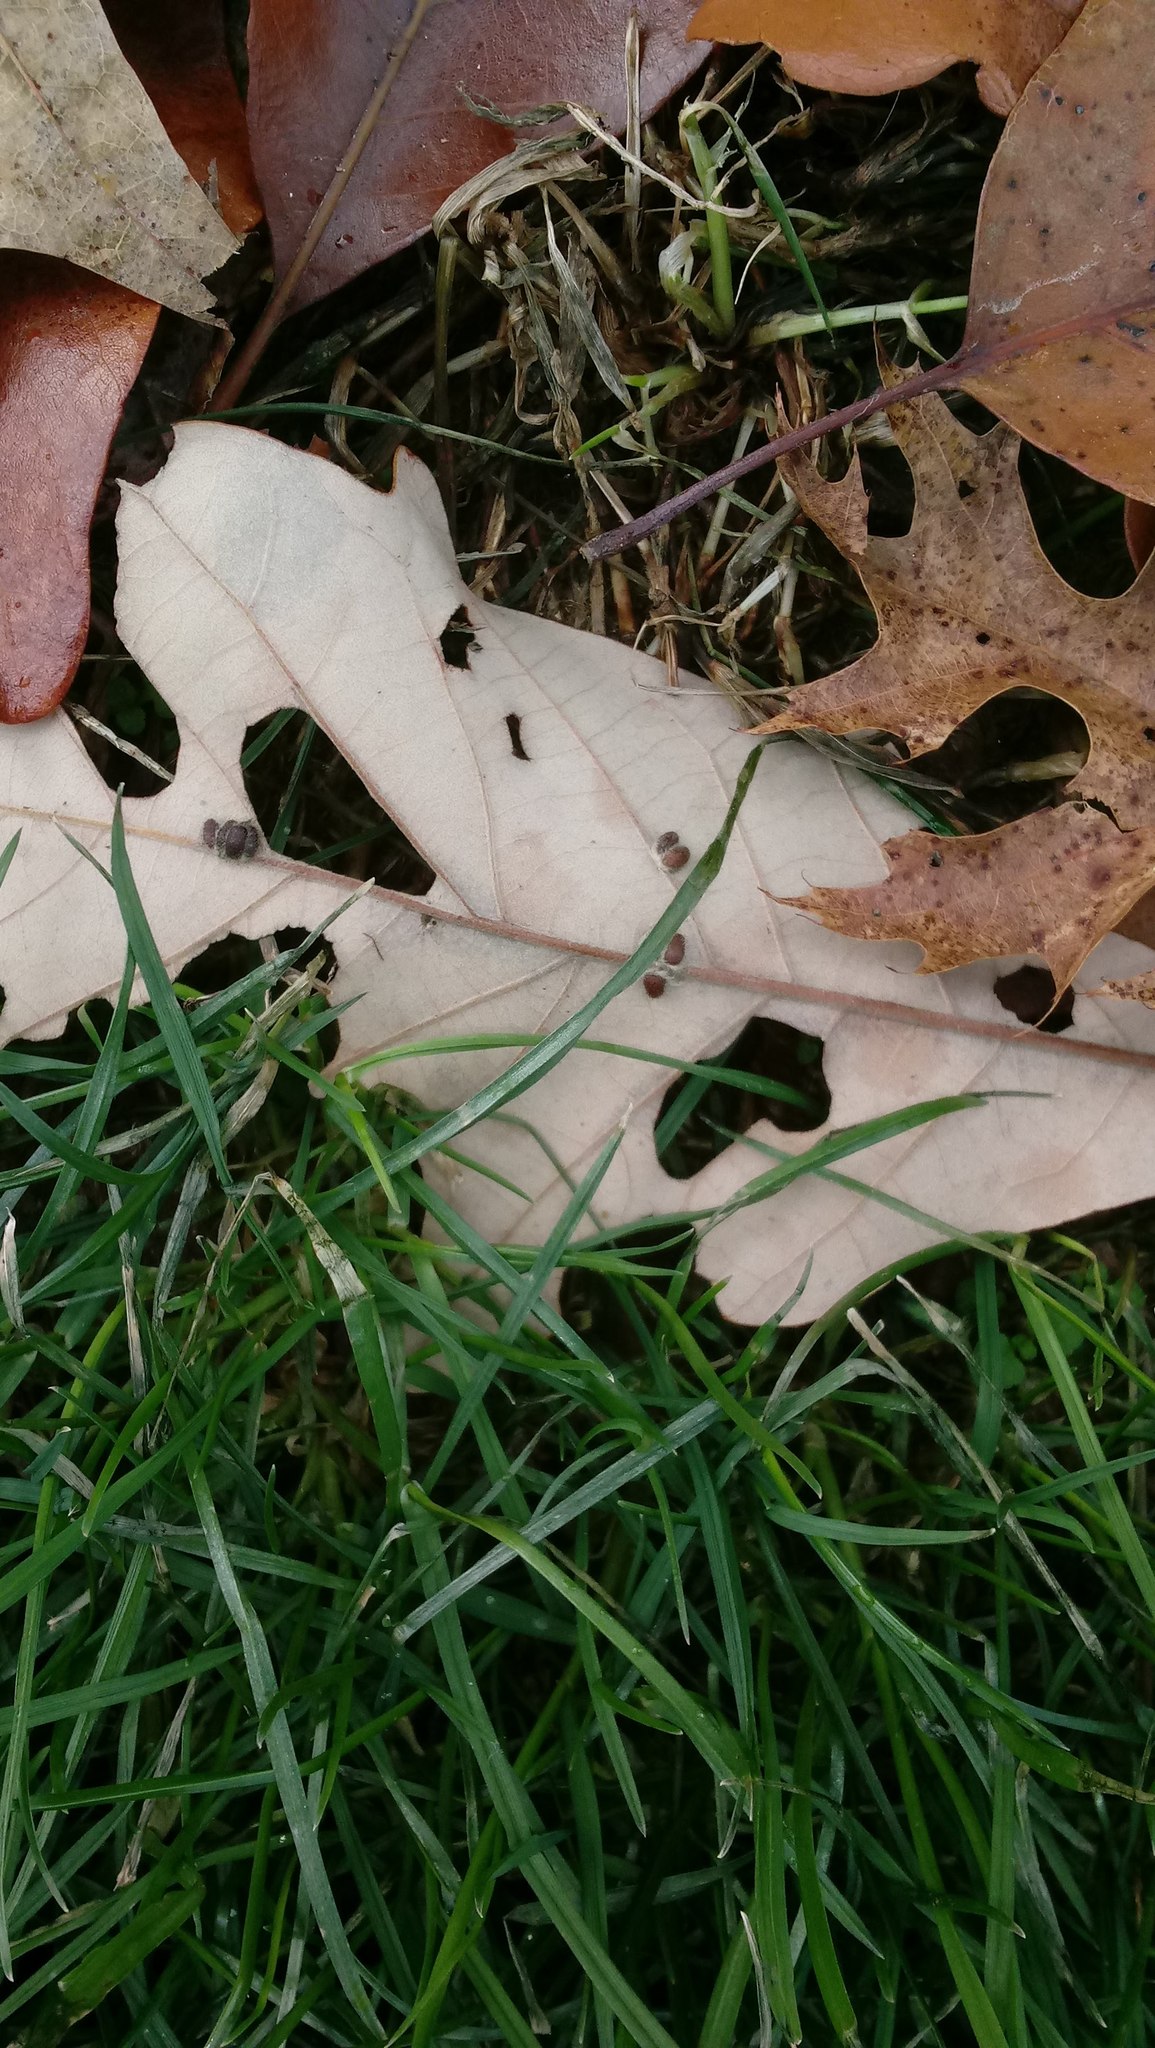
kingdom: Animalia
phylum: Arthropoda
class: Insecta
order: Hymenoptera
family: Cynipidae
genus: Andricus
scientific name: Andricus Druon ignotum
